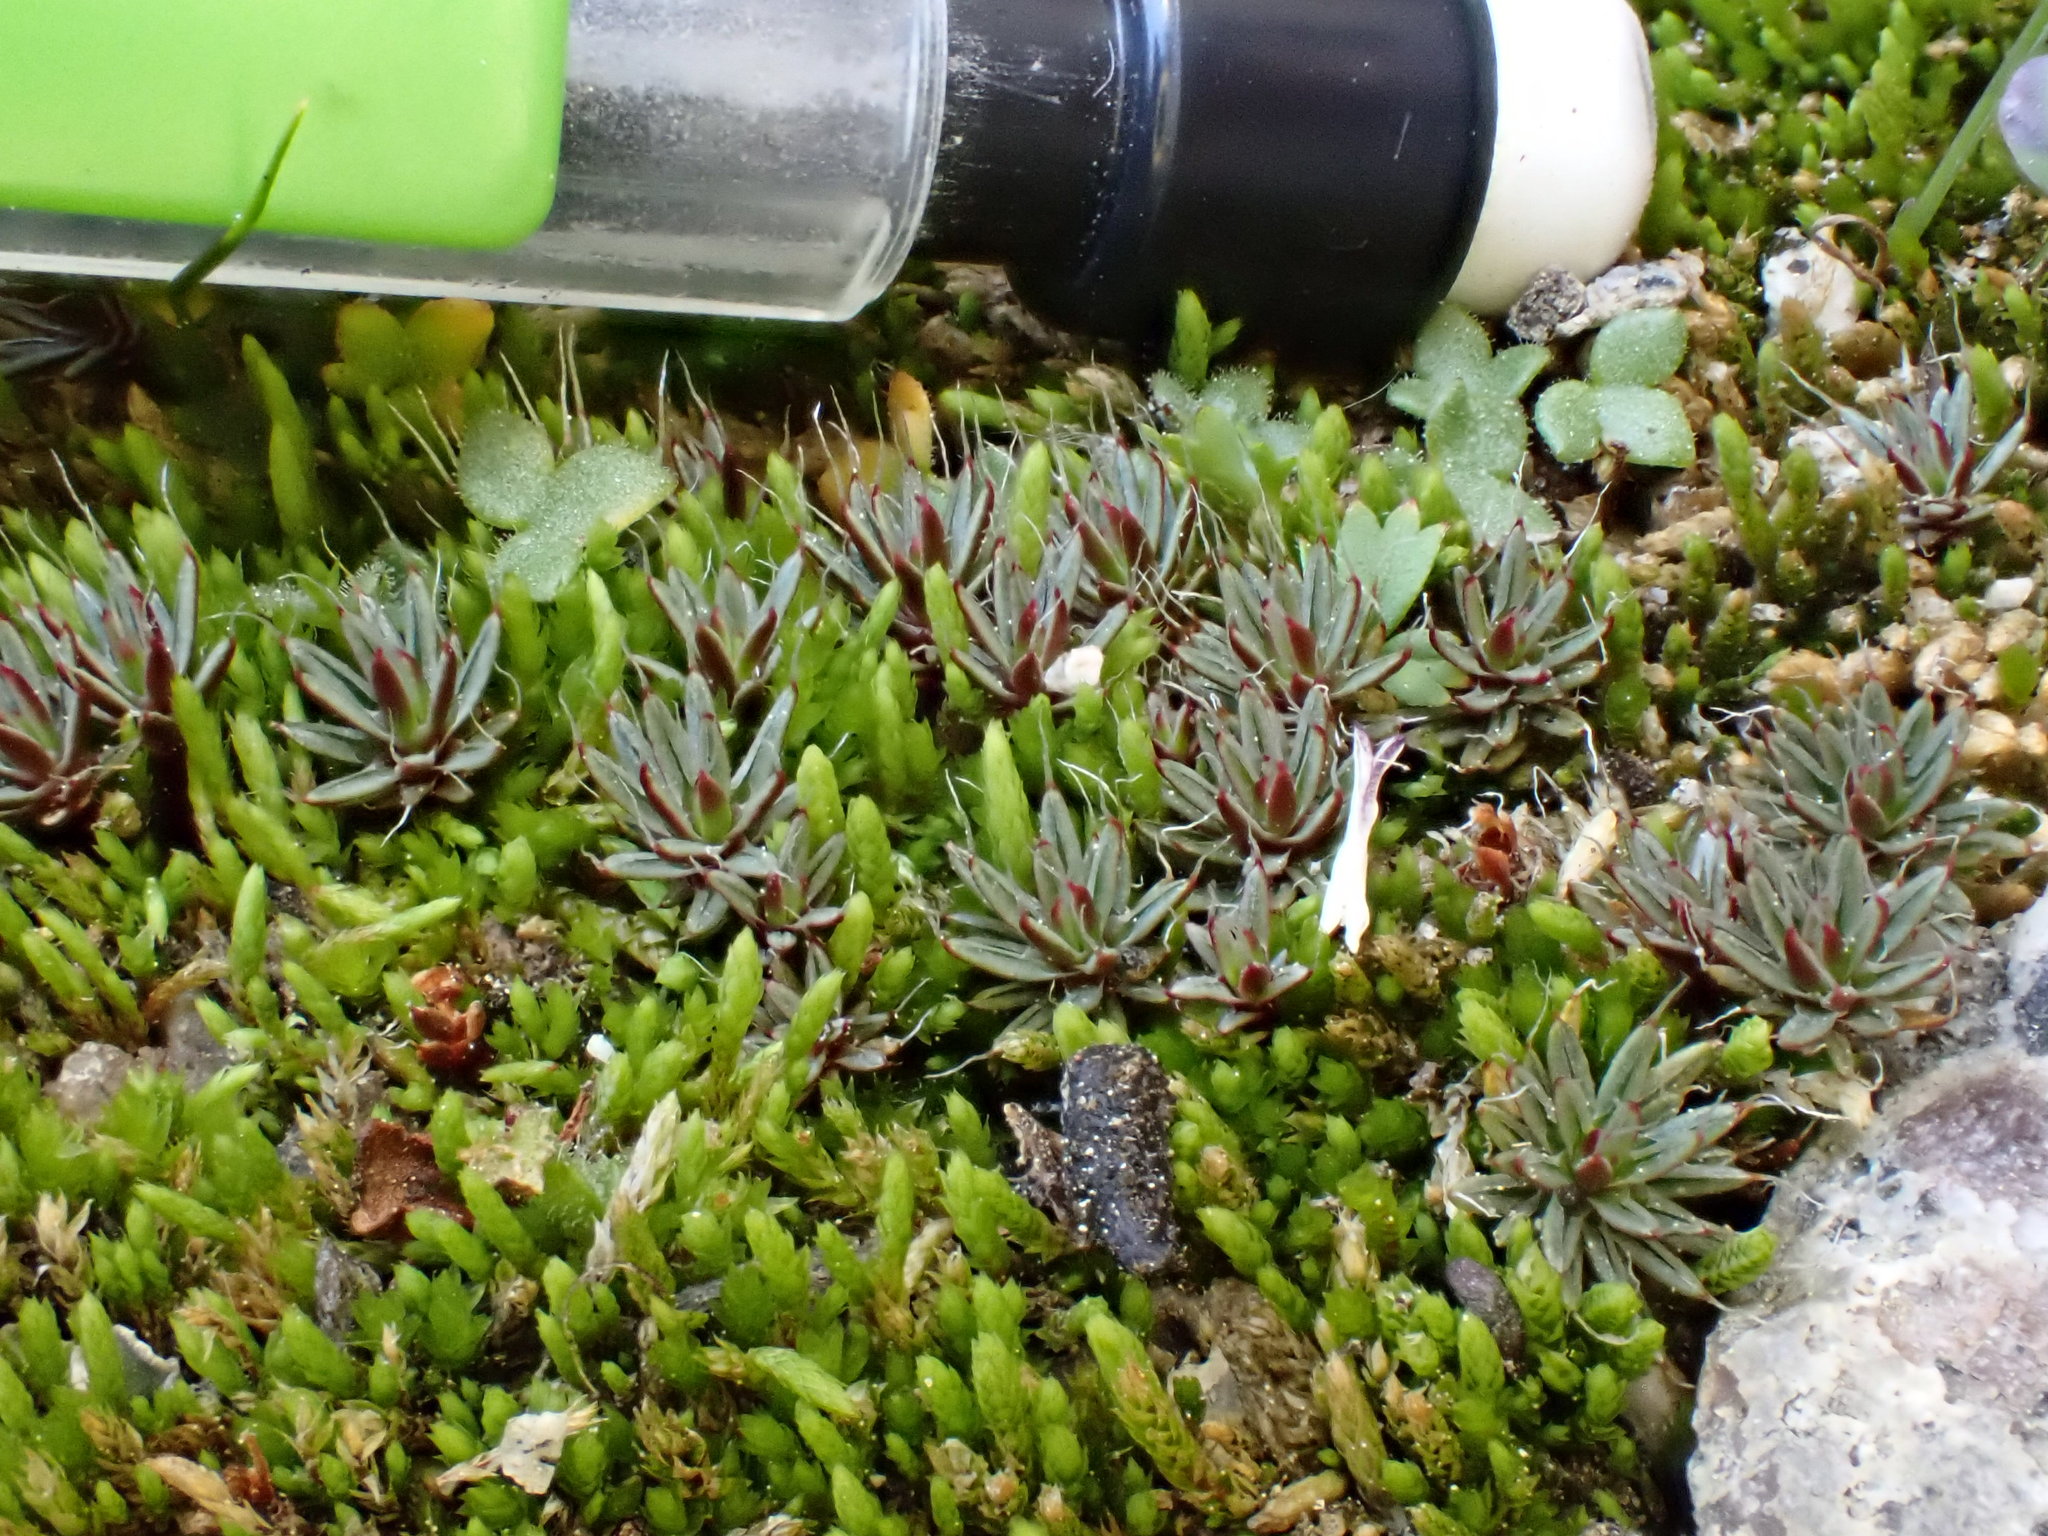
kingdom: Plantae
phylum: Bryophyta
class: Polytrichopsida
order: Polytrichales
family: Polytrichaceae
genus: Polytrichum
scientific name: Polytrichum piliferum
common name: Bristly haircap
